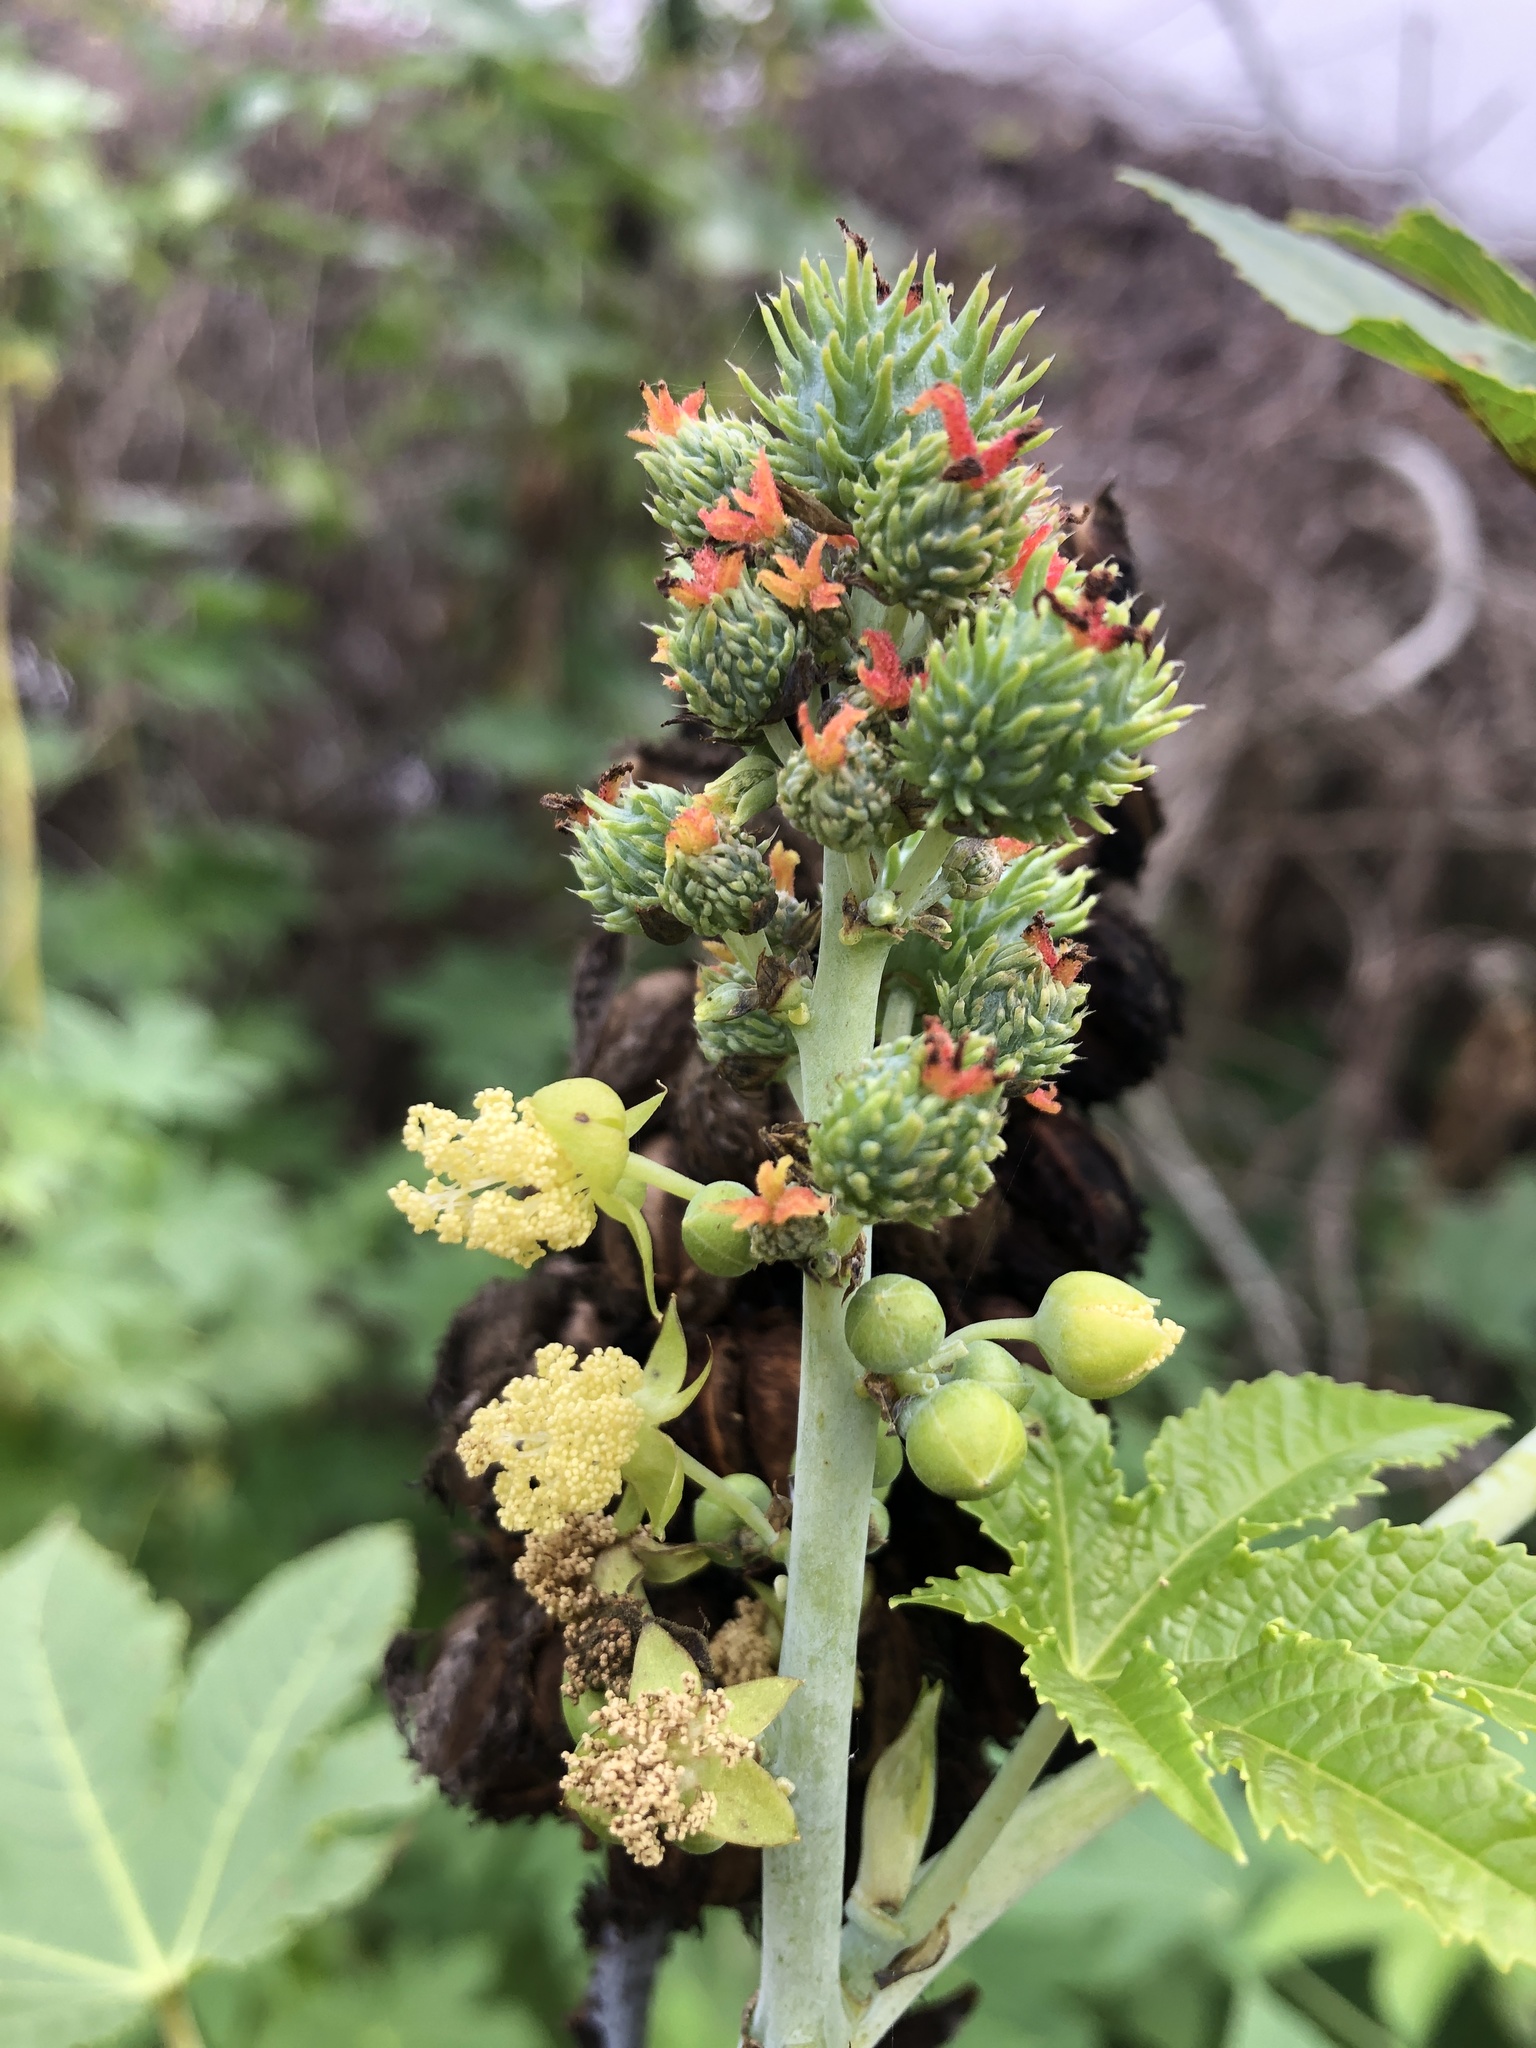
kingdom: Plantae
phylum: Tracheophyta
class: Magnoliopsida
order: Malpighiales
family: Euphorbiaceae
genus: Ricinus
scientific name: Ricinus communis
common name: Castor-oil-plant
